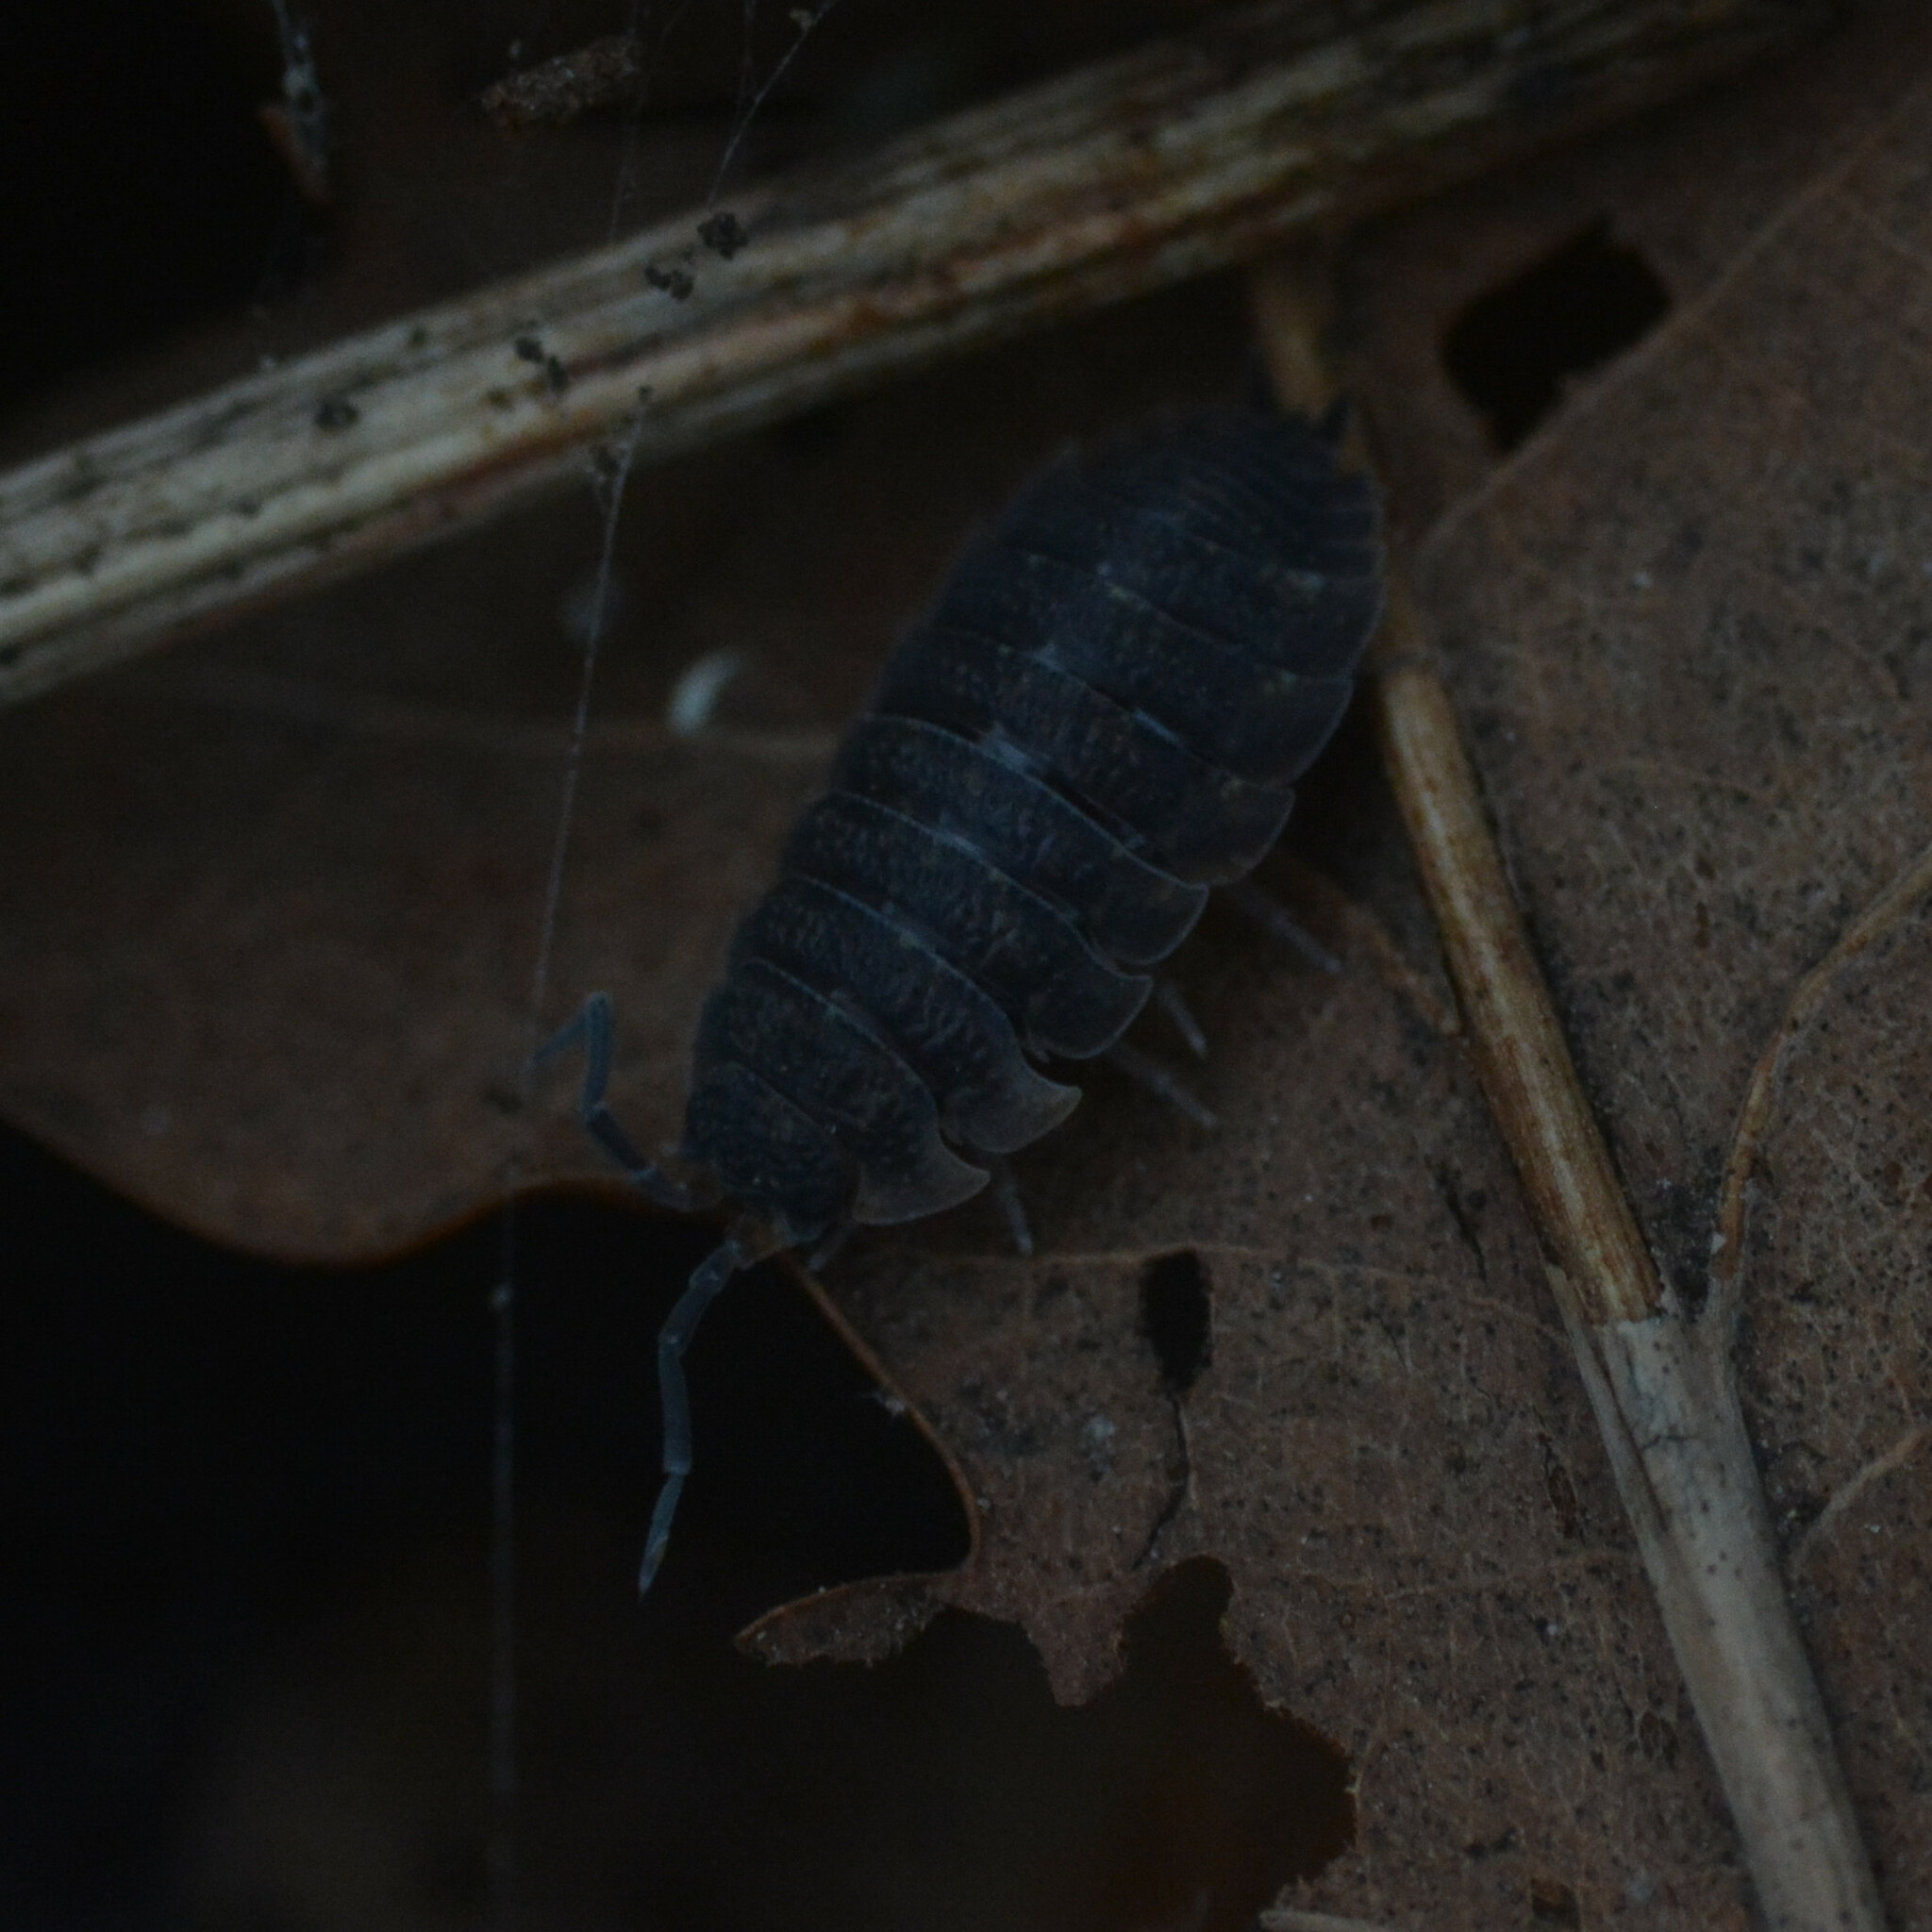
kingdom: Animalia
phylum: Arthropoda
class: Malacostraca
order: Isopoda
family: Porcellionidae
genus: Porcellio
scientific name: Porcellio scaber
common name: Common rough woodlouse
